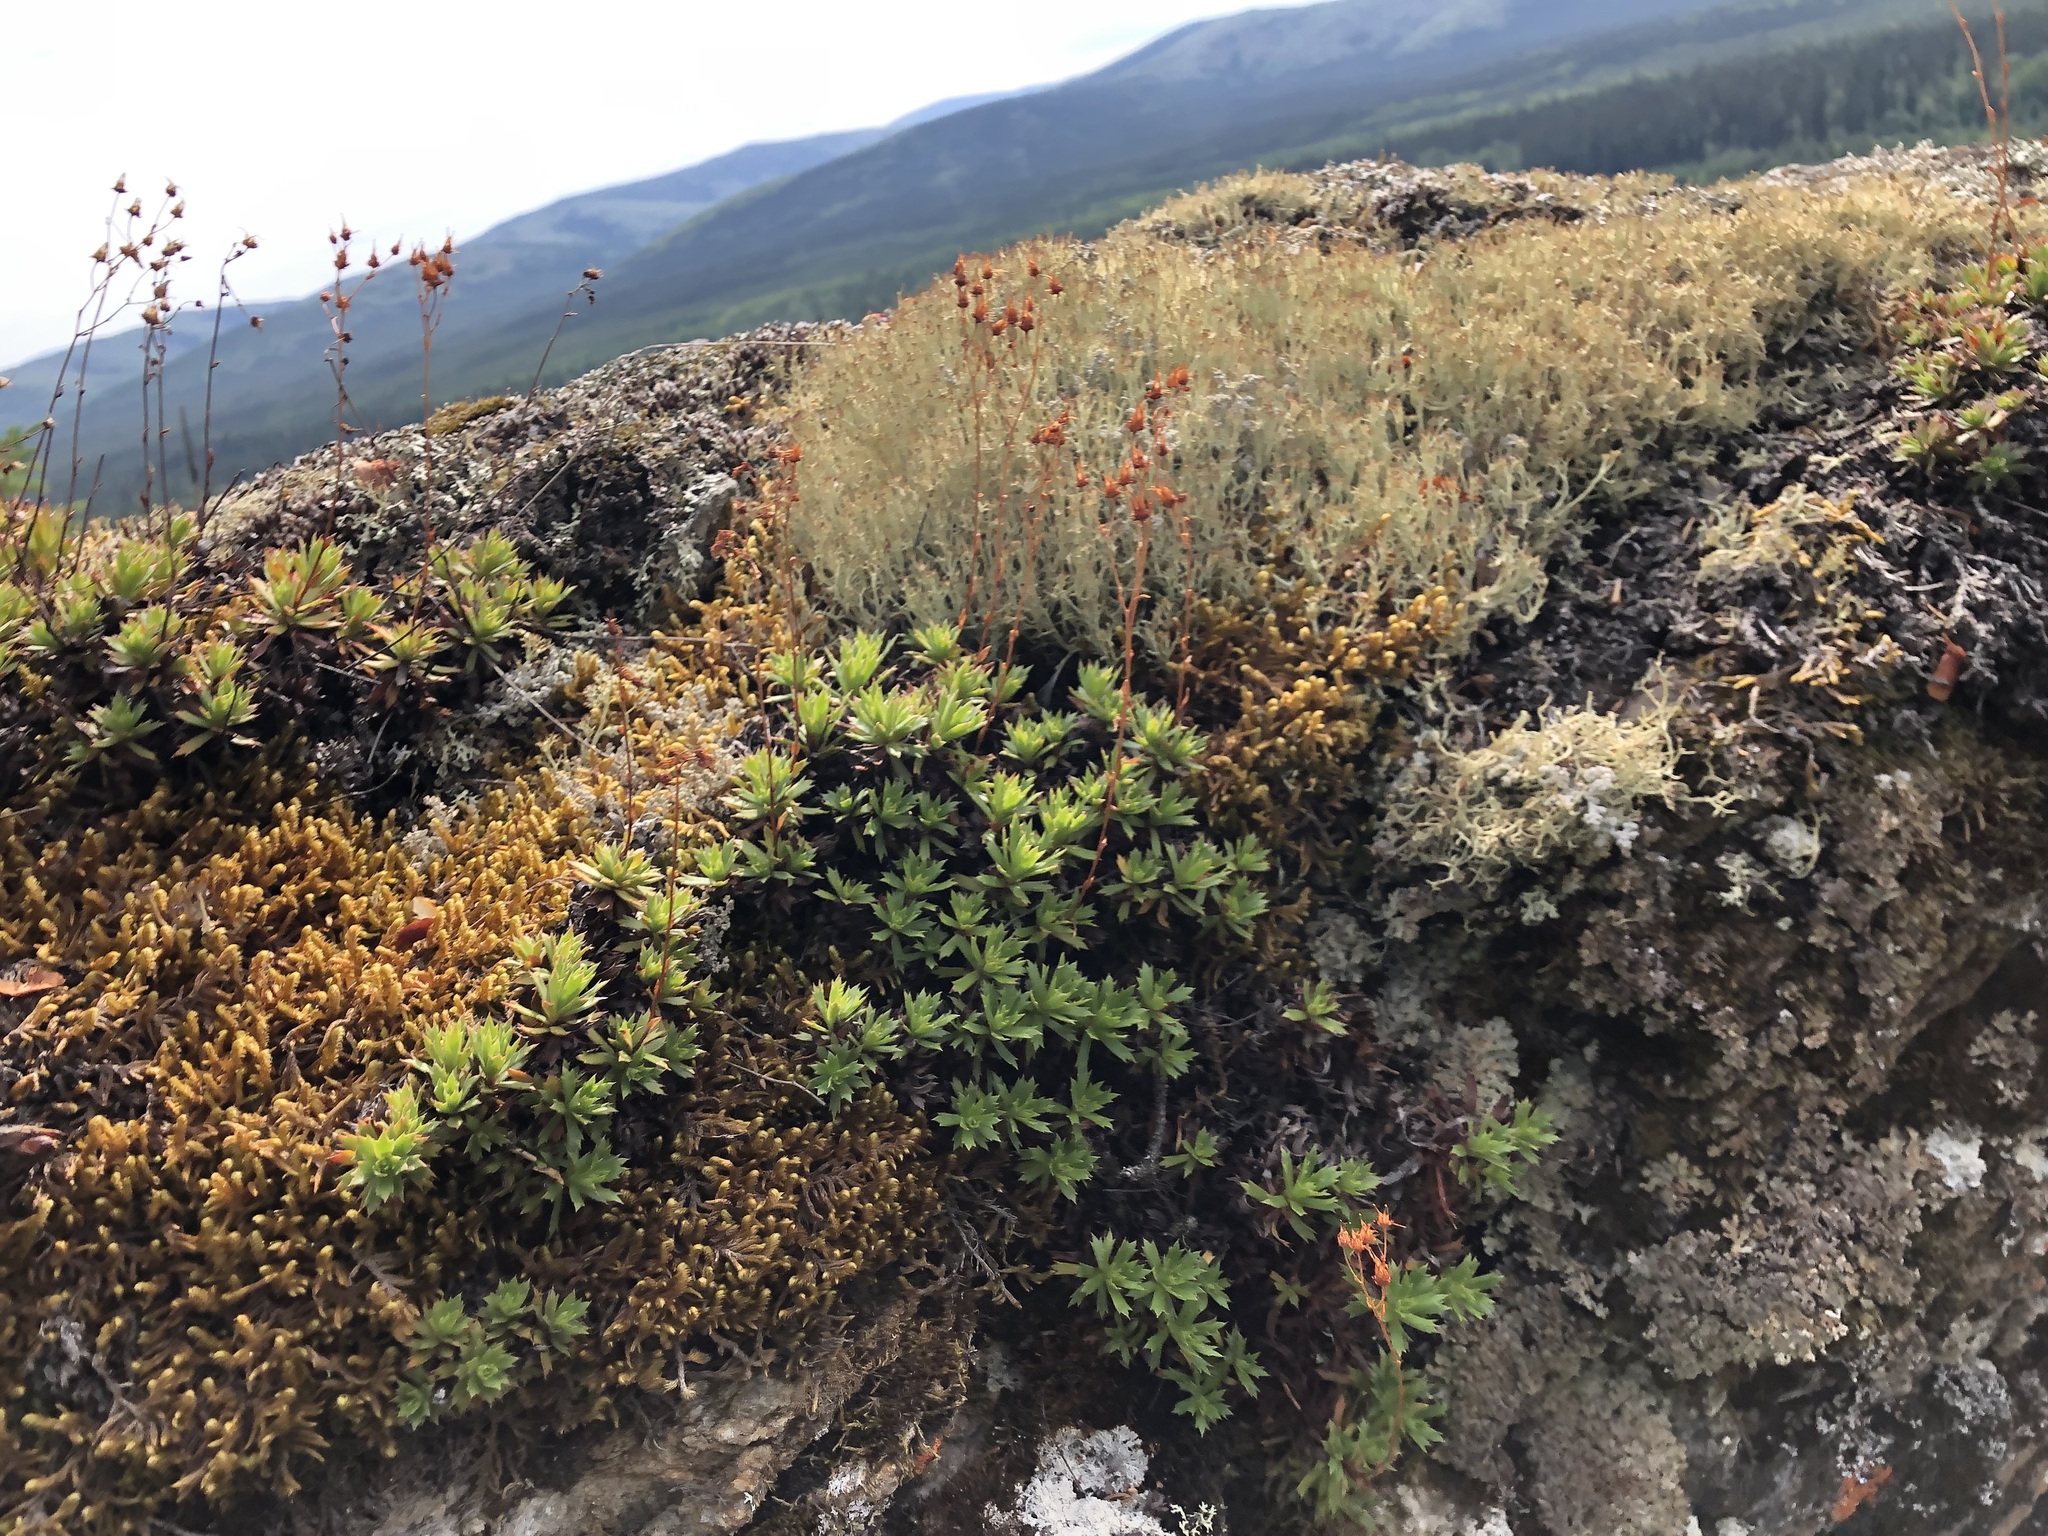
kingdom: Plantae
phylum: Tracheophyta
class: Magnoliopsida
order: Saxifragales
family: Saxifragaceae
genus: Saxifraga
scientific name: Saxifraga tricuspidata
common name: Prickly saxifrage
